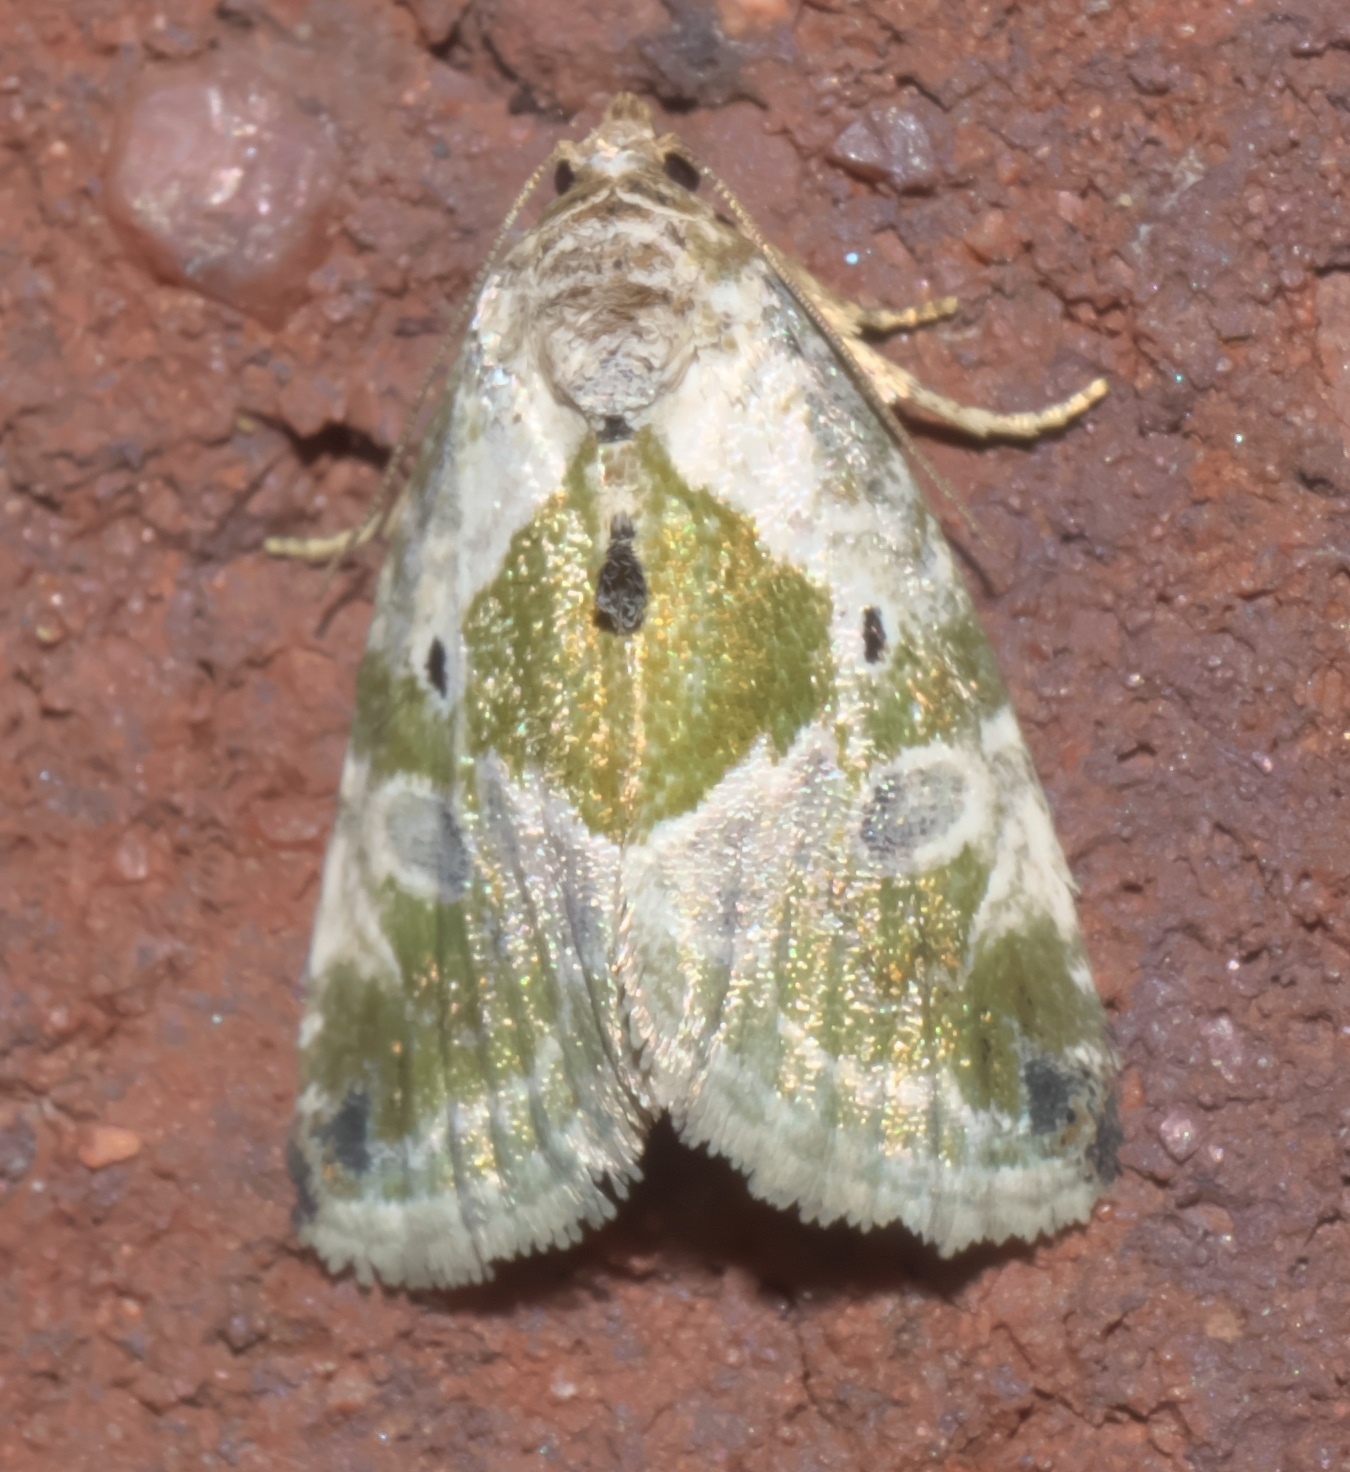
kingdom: Animalia
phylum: Arthropoda
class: Insecta
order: Lepidoptera
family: Noctuidae
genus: Maliattha
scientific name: Maliattha synochitis
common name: Black-dotted glyph
